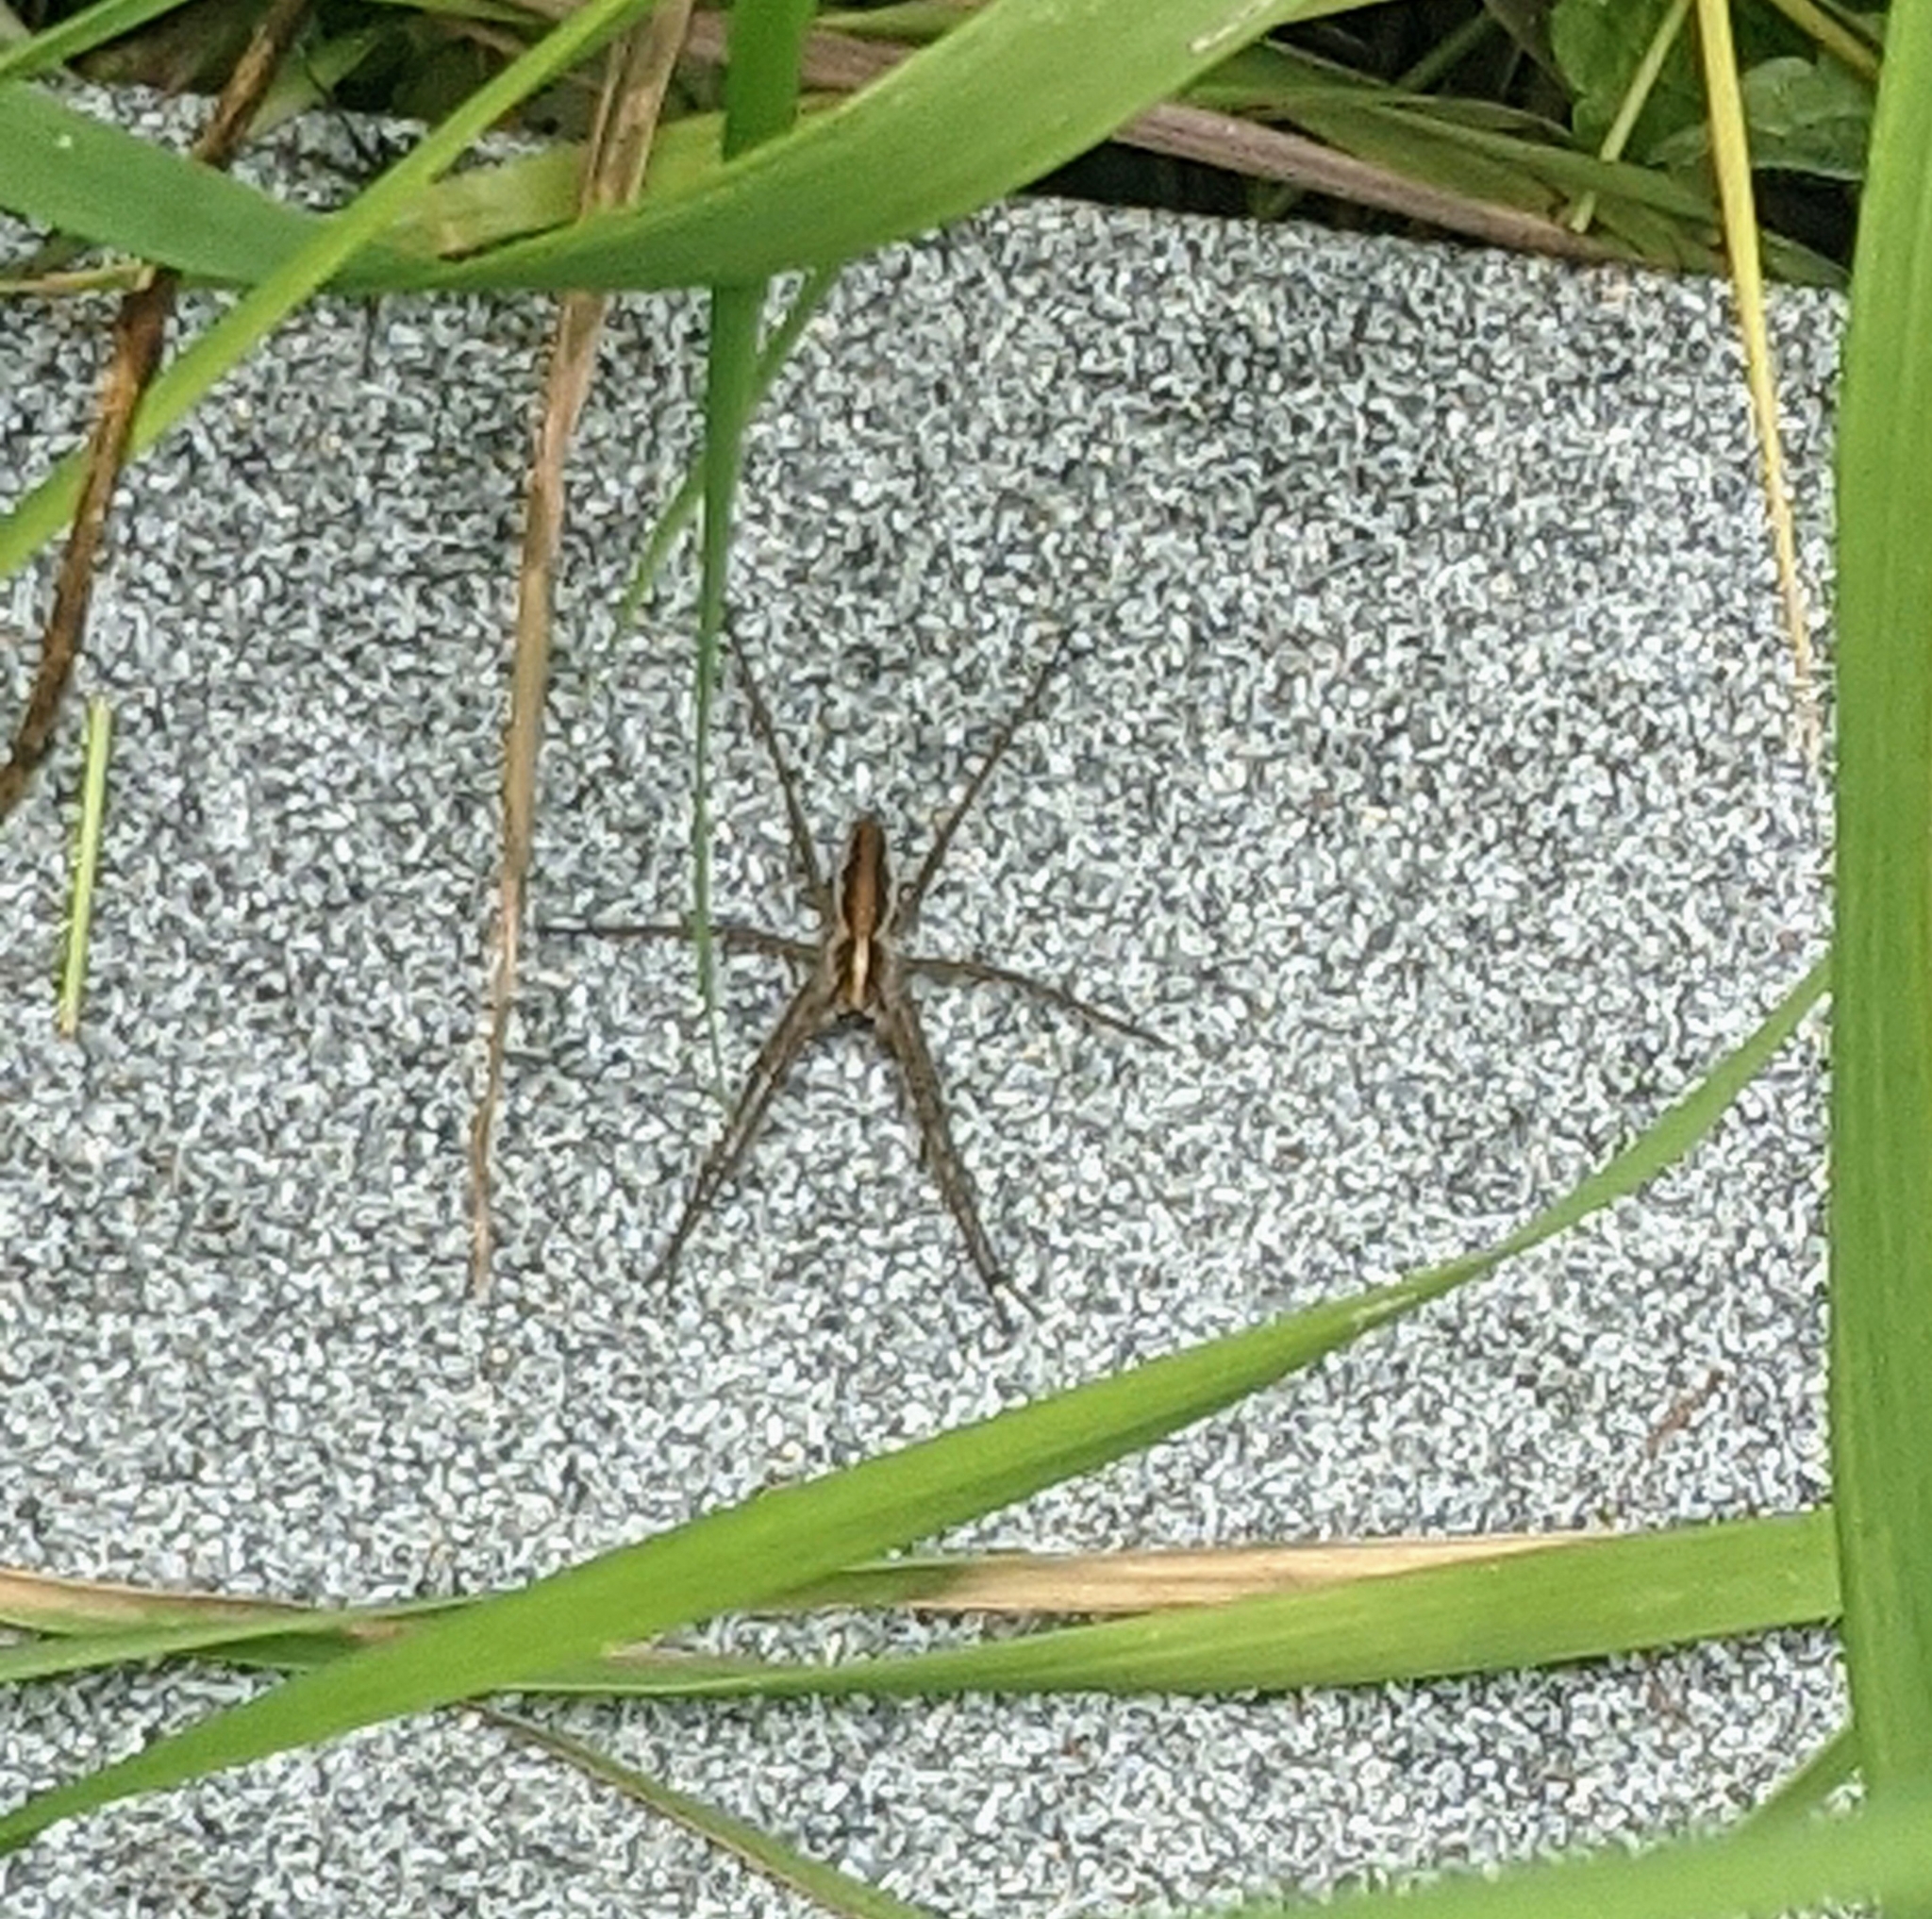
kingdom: Animalia
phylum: Arthropoda
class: Arachnida
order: Araneae
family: Pisauridae
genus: Pisaura
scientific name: Pisaura mirabilis
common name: Tent spider
